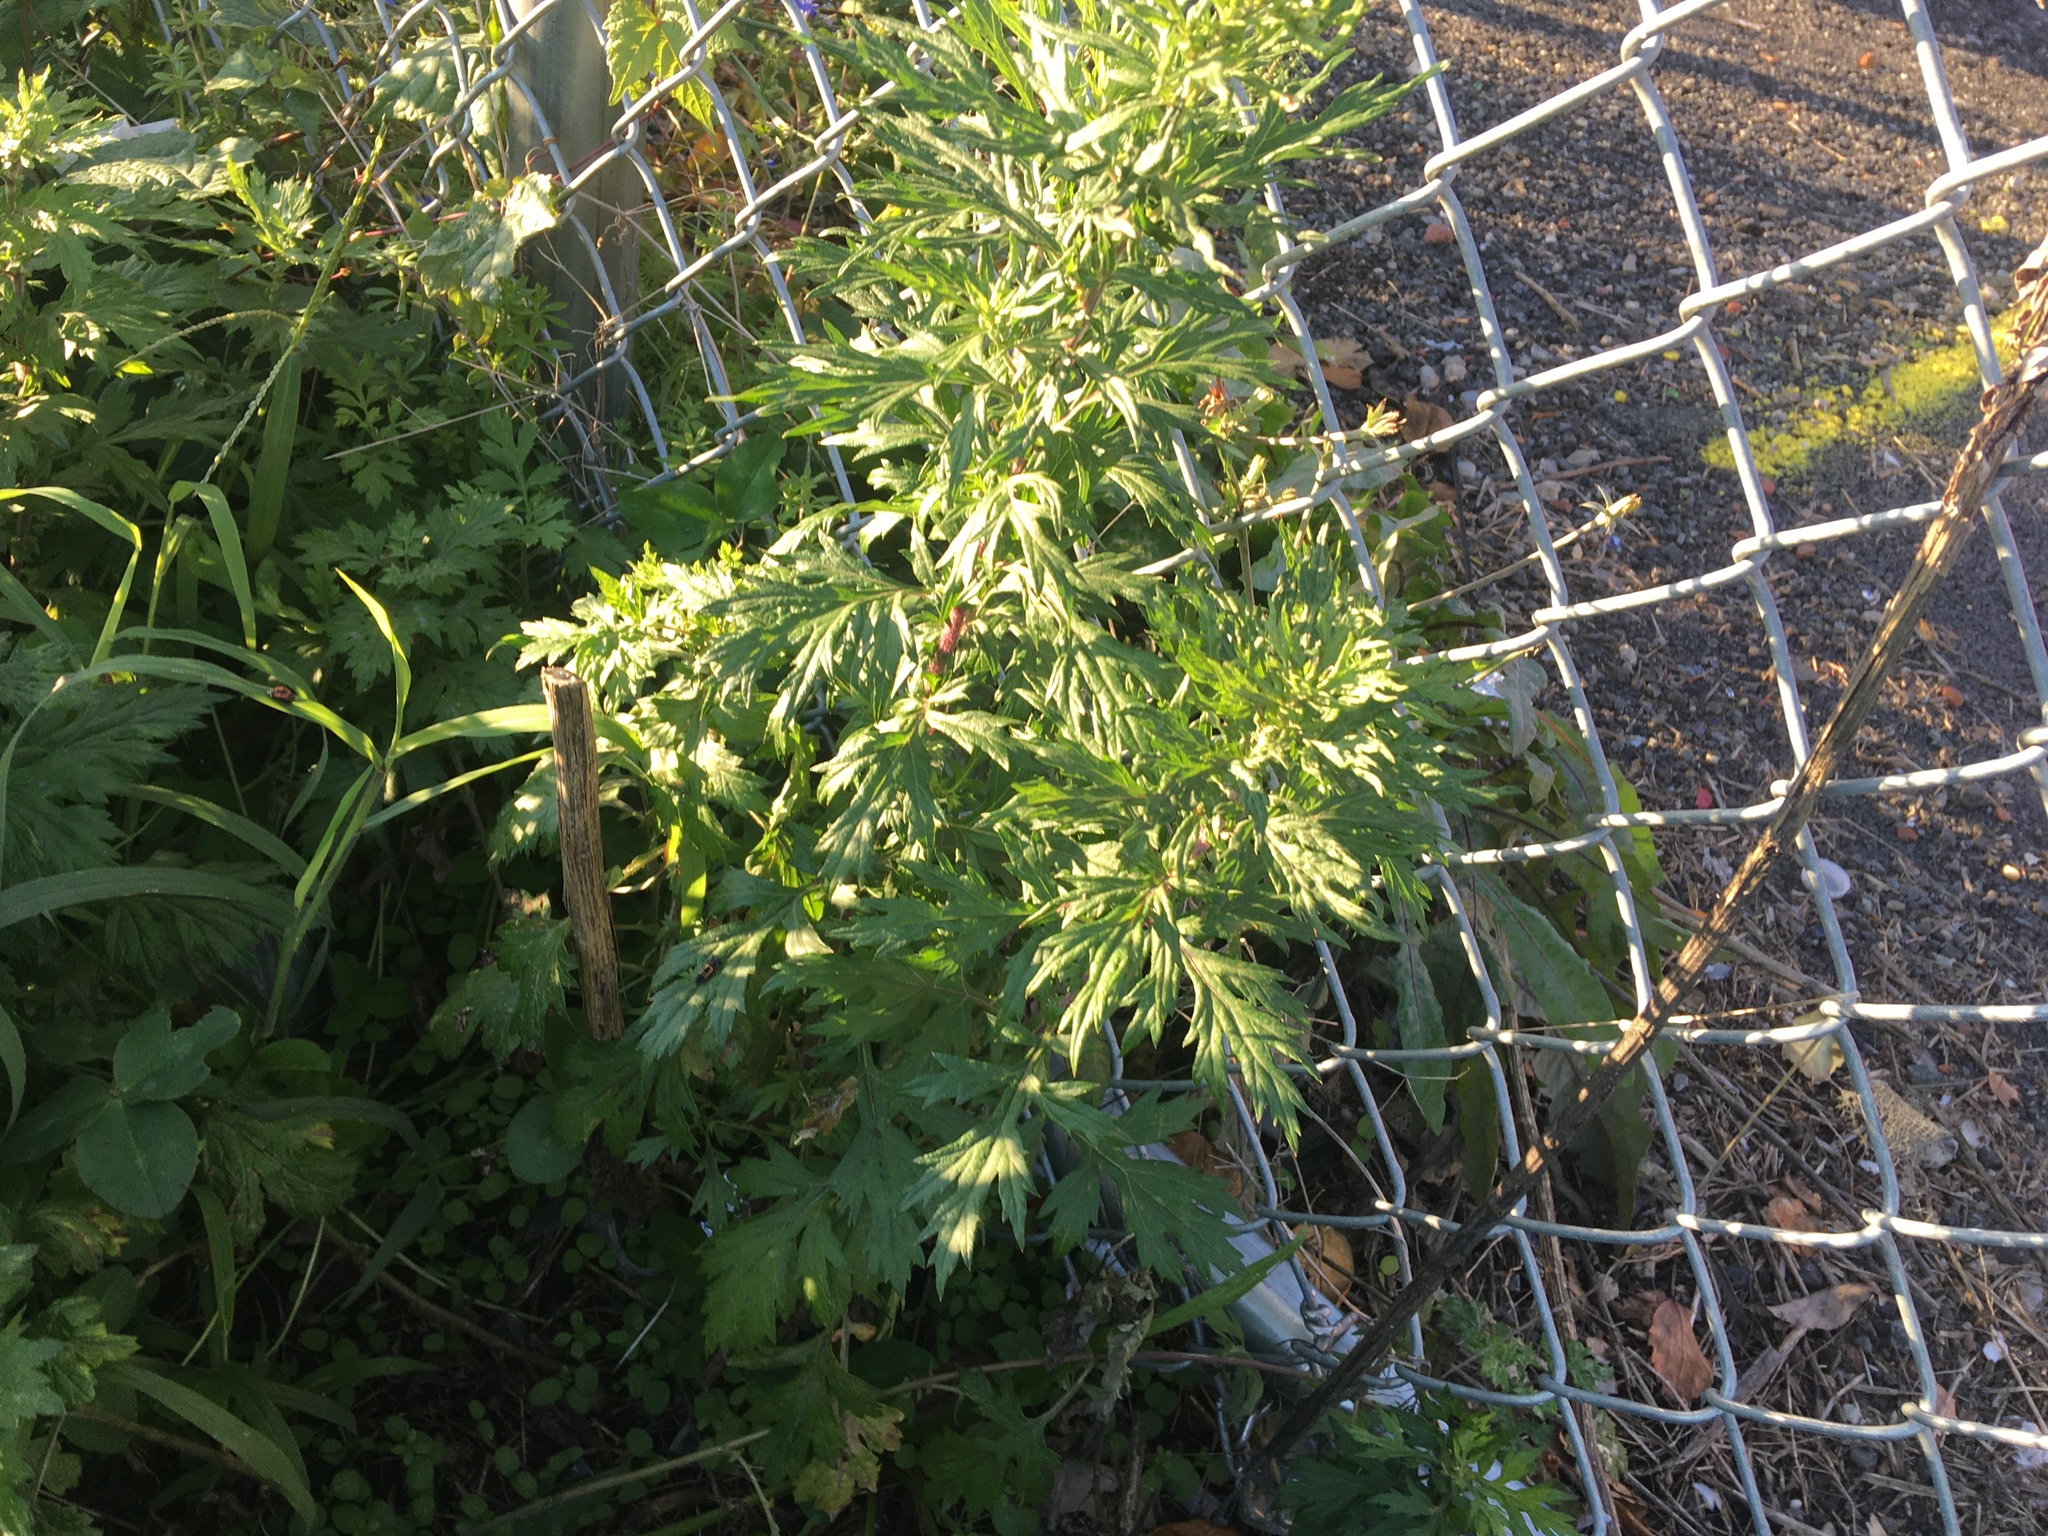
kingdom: Plantae
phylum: Tracheophyta
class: Magnoliopsida
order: Asterales
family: Asteraceae
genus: Artemisia
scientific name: Artemisia vulgaris
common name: Mugwort
